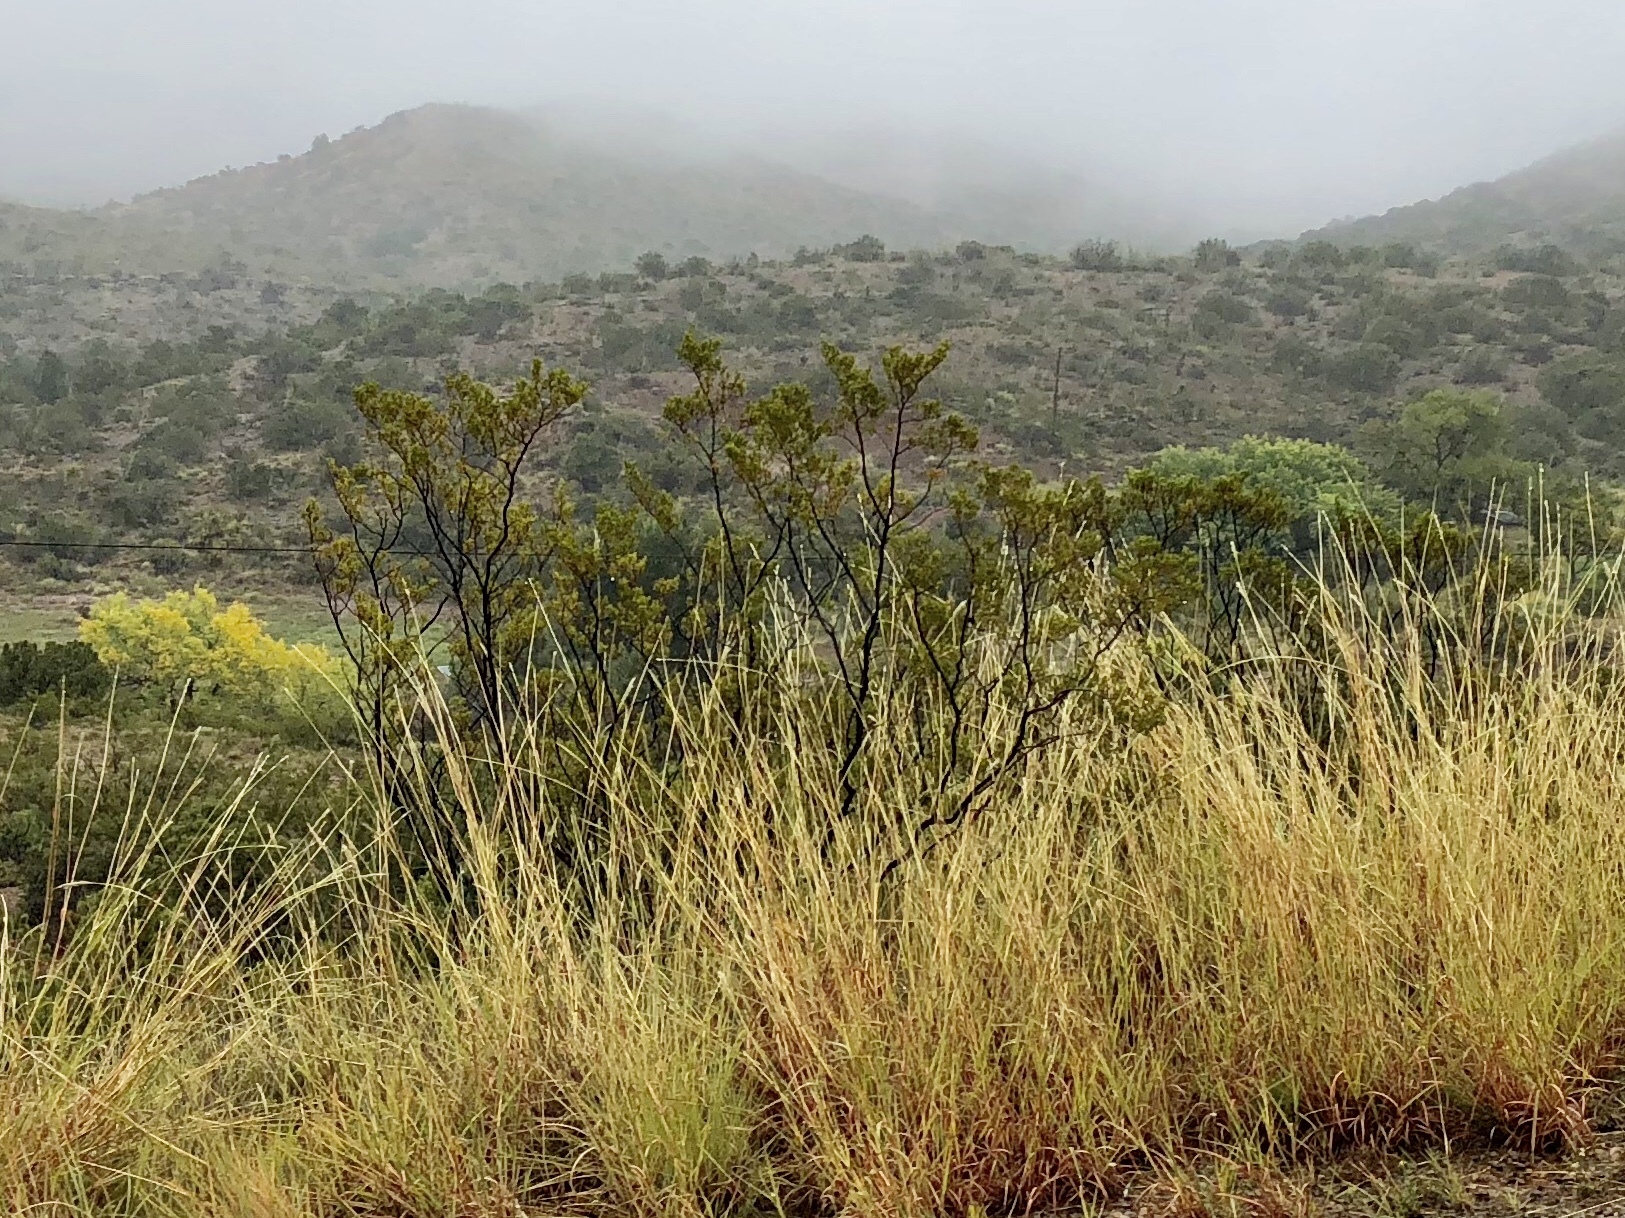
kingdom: Plantae
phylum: Tracheophyta
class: Magnoliopsida
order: Zygophyllales
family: Zygophyllaceae
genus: Larrea
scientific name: Larrea tridentata
